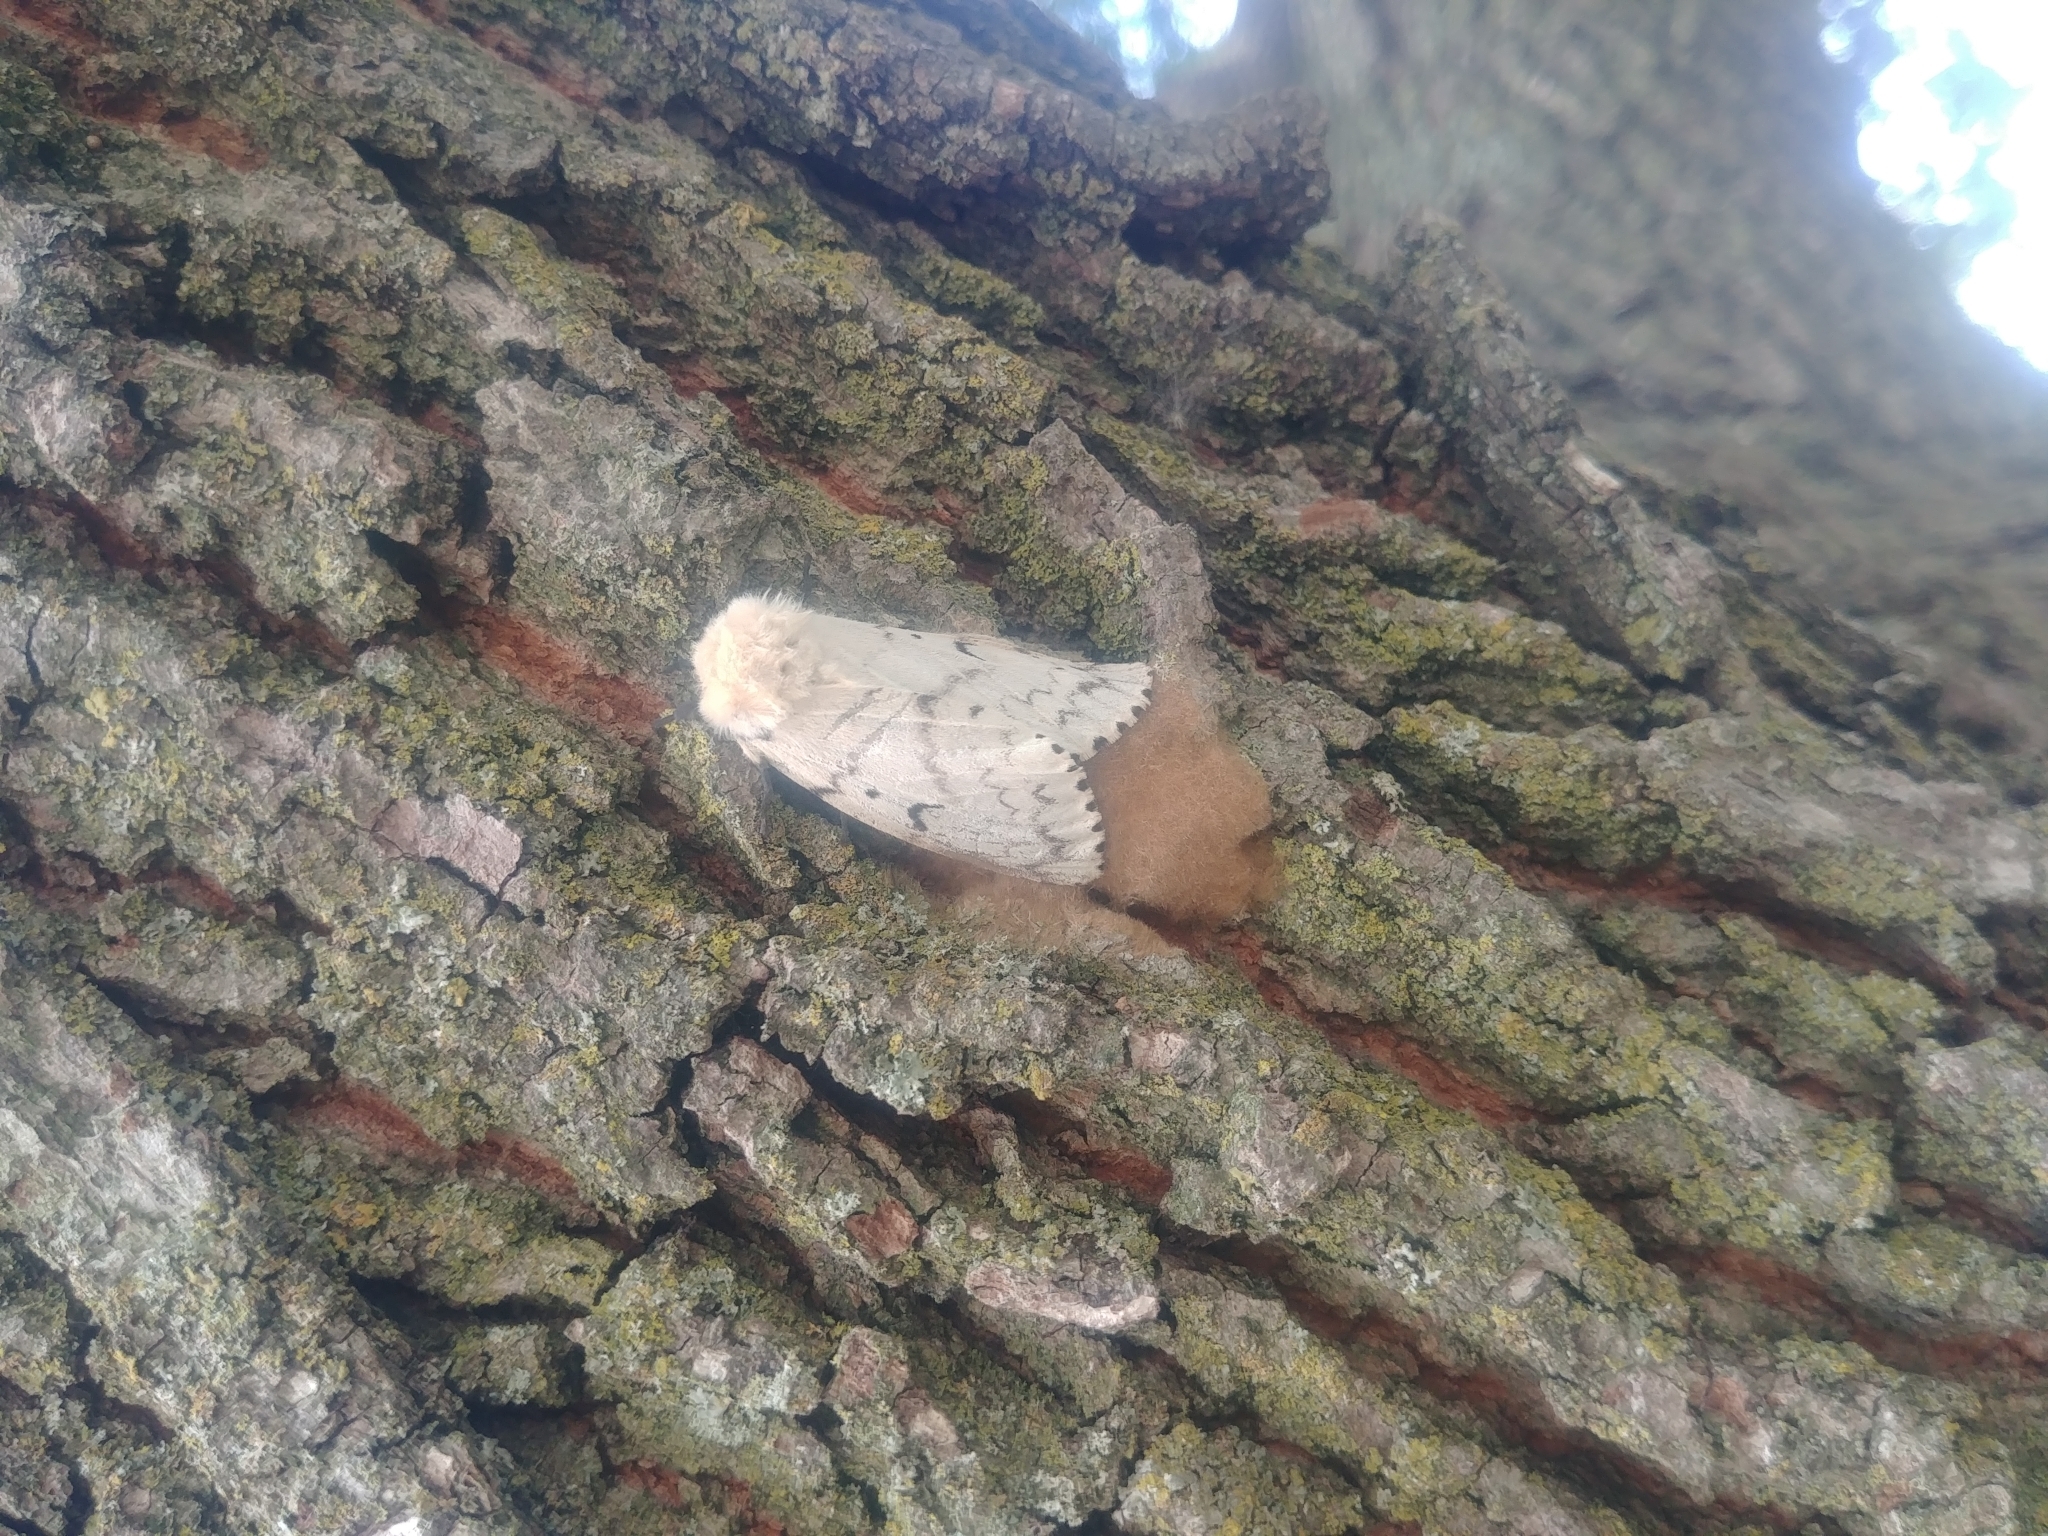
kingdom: Animalia
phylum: Arthropoda
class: Insecta
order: Lepidoptera
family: Erebidae
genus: Lymantria
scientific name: Lymantria dispar
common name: Gypsy moth
